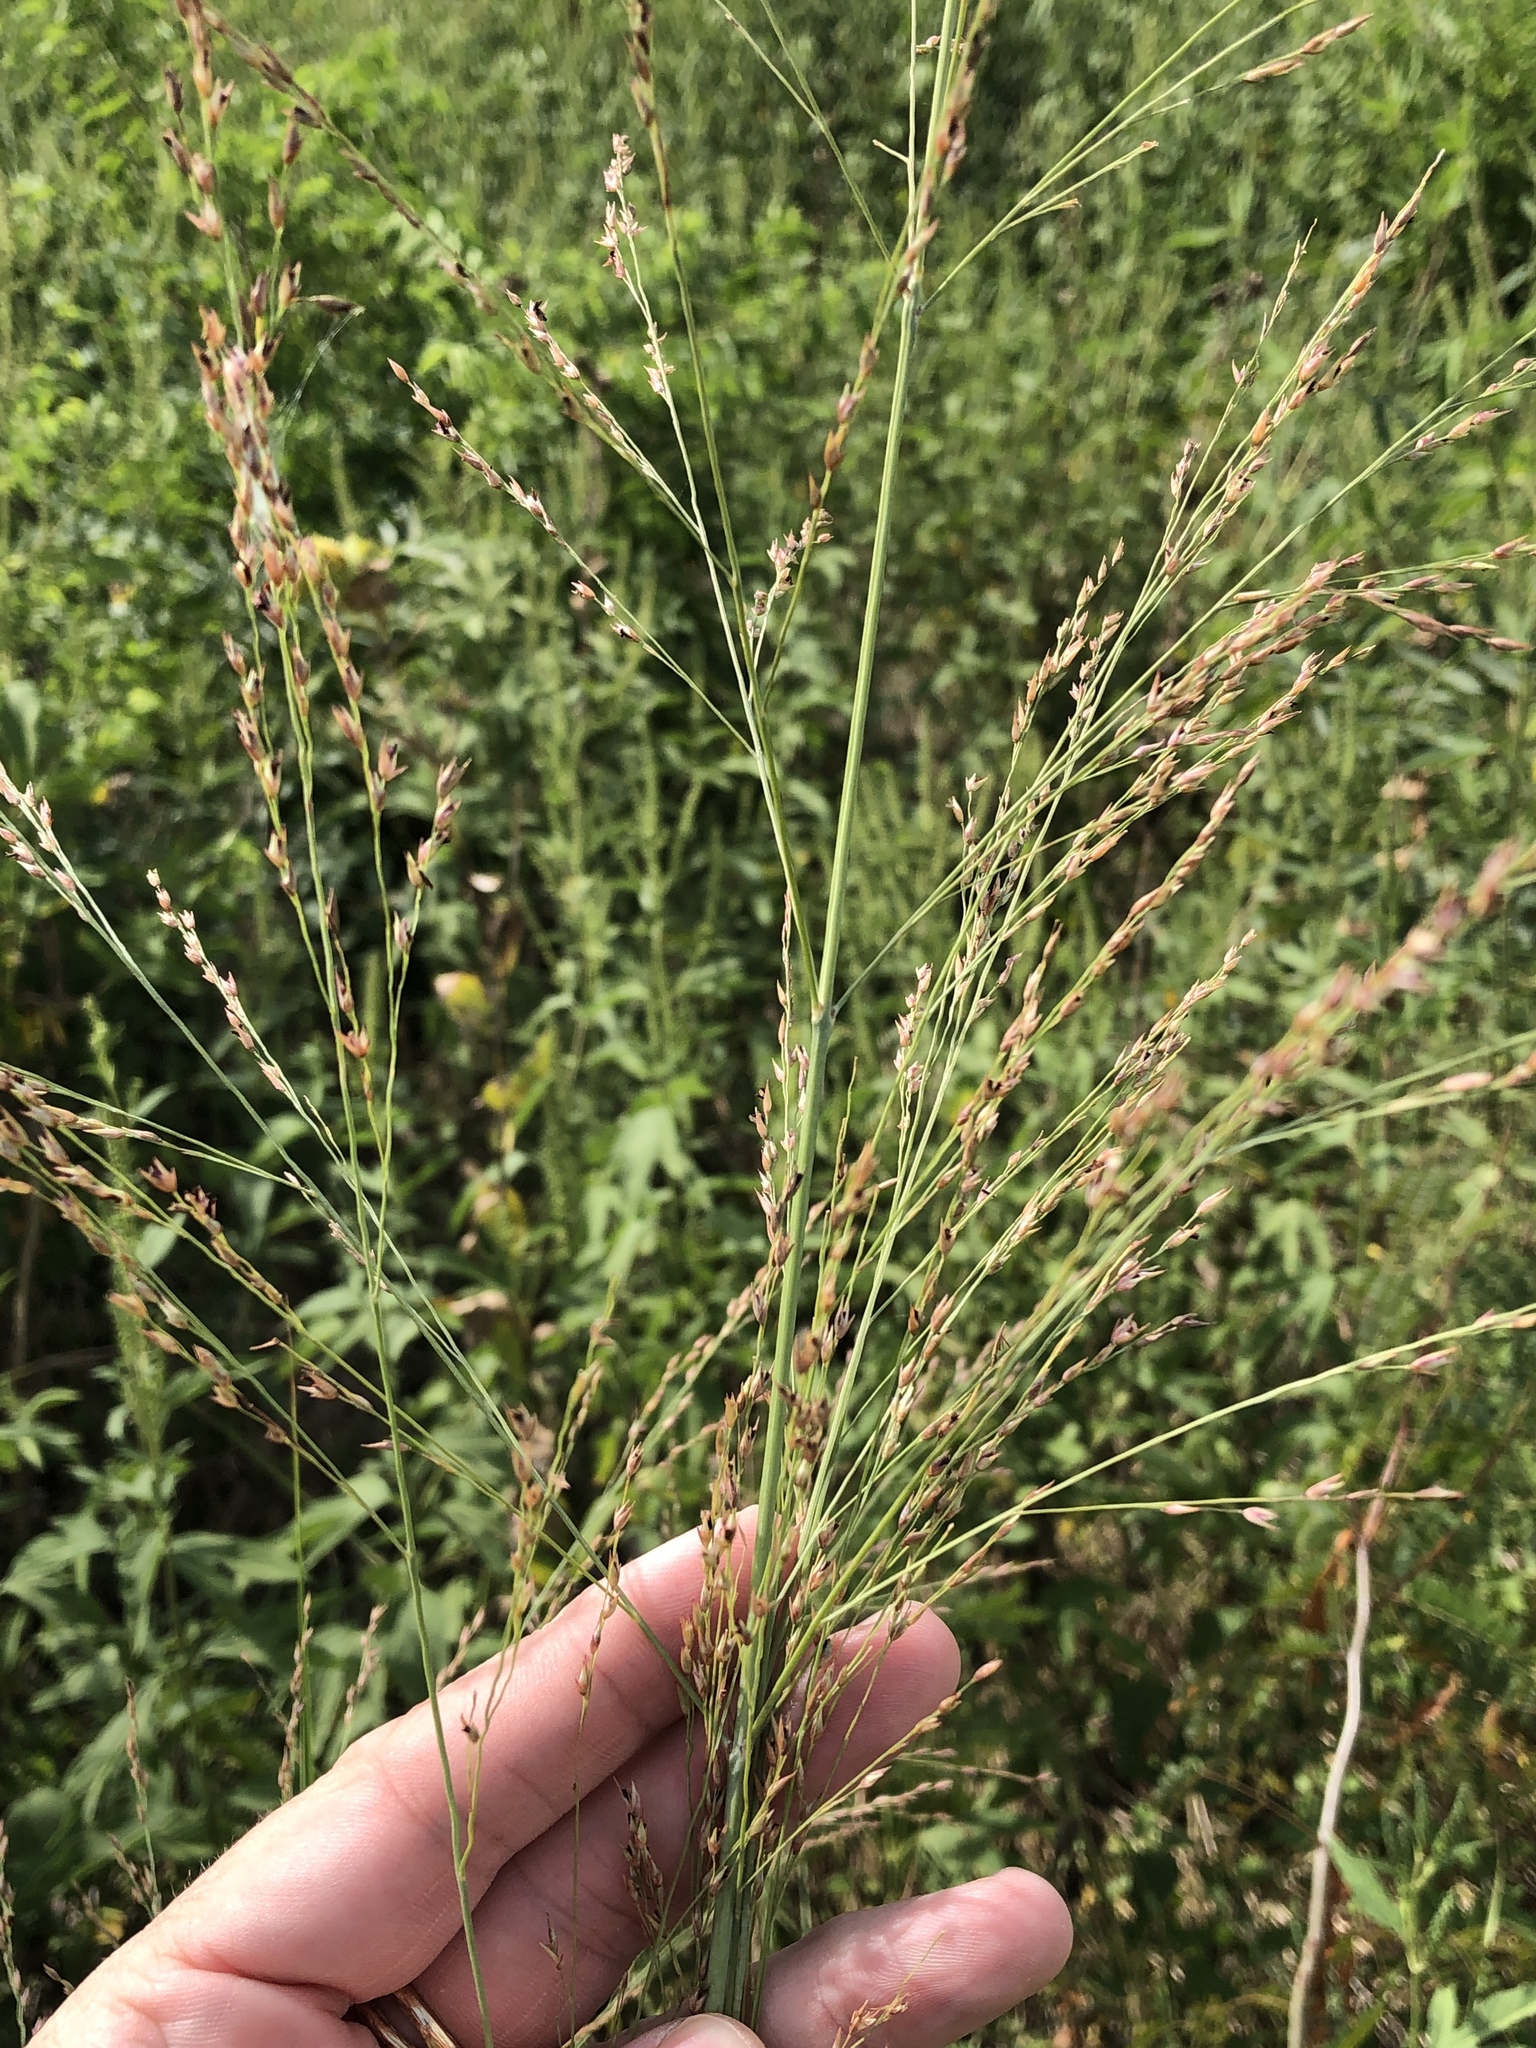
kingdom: Plantae
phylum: Tracheophyta
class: Liliopsida
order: Poales
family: Poaceae
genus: Panicum
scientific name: Panicum virgatum
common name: Switchgrass
